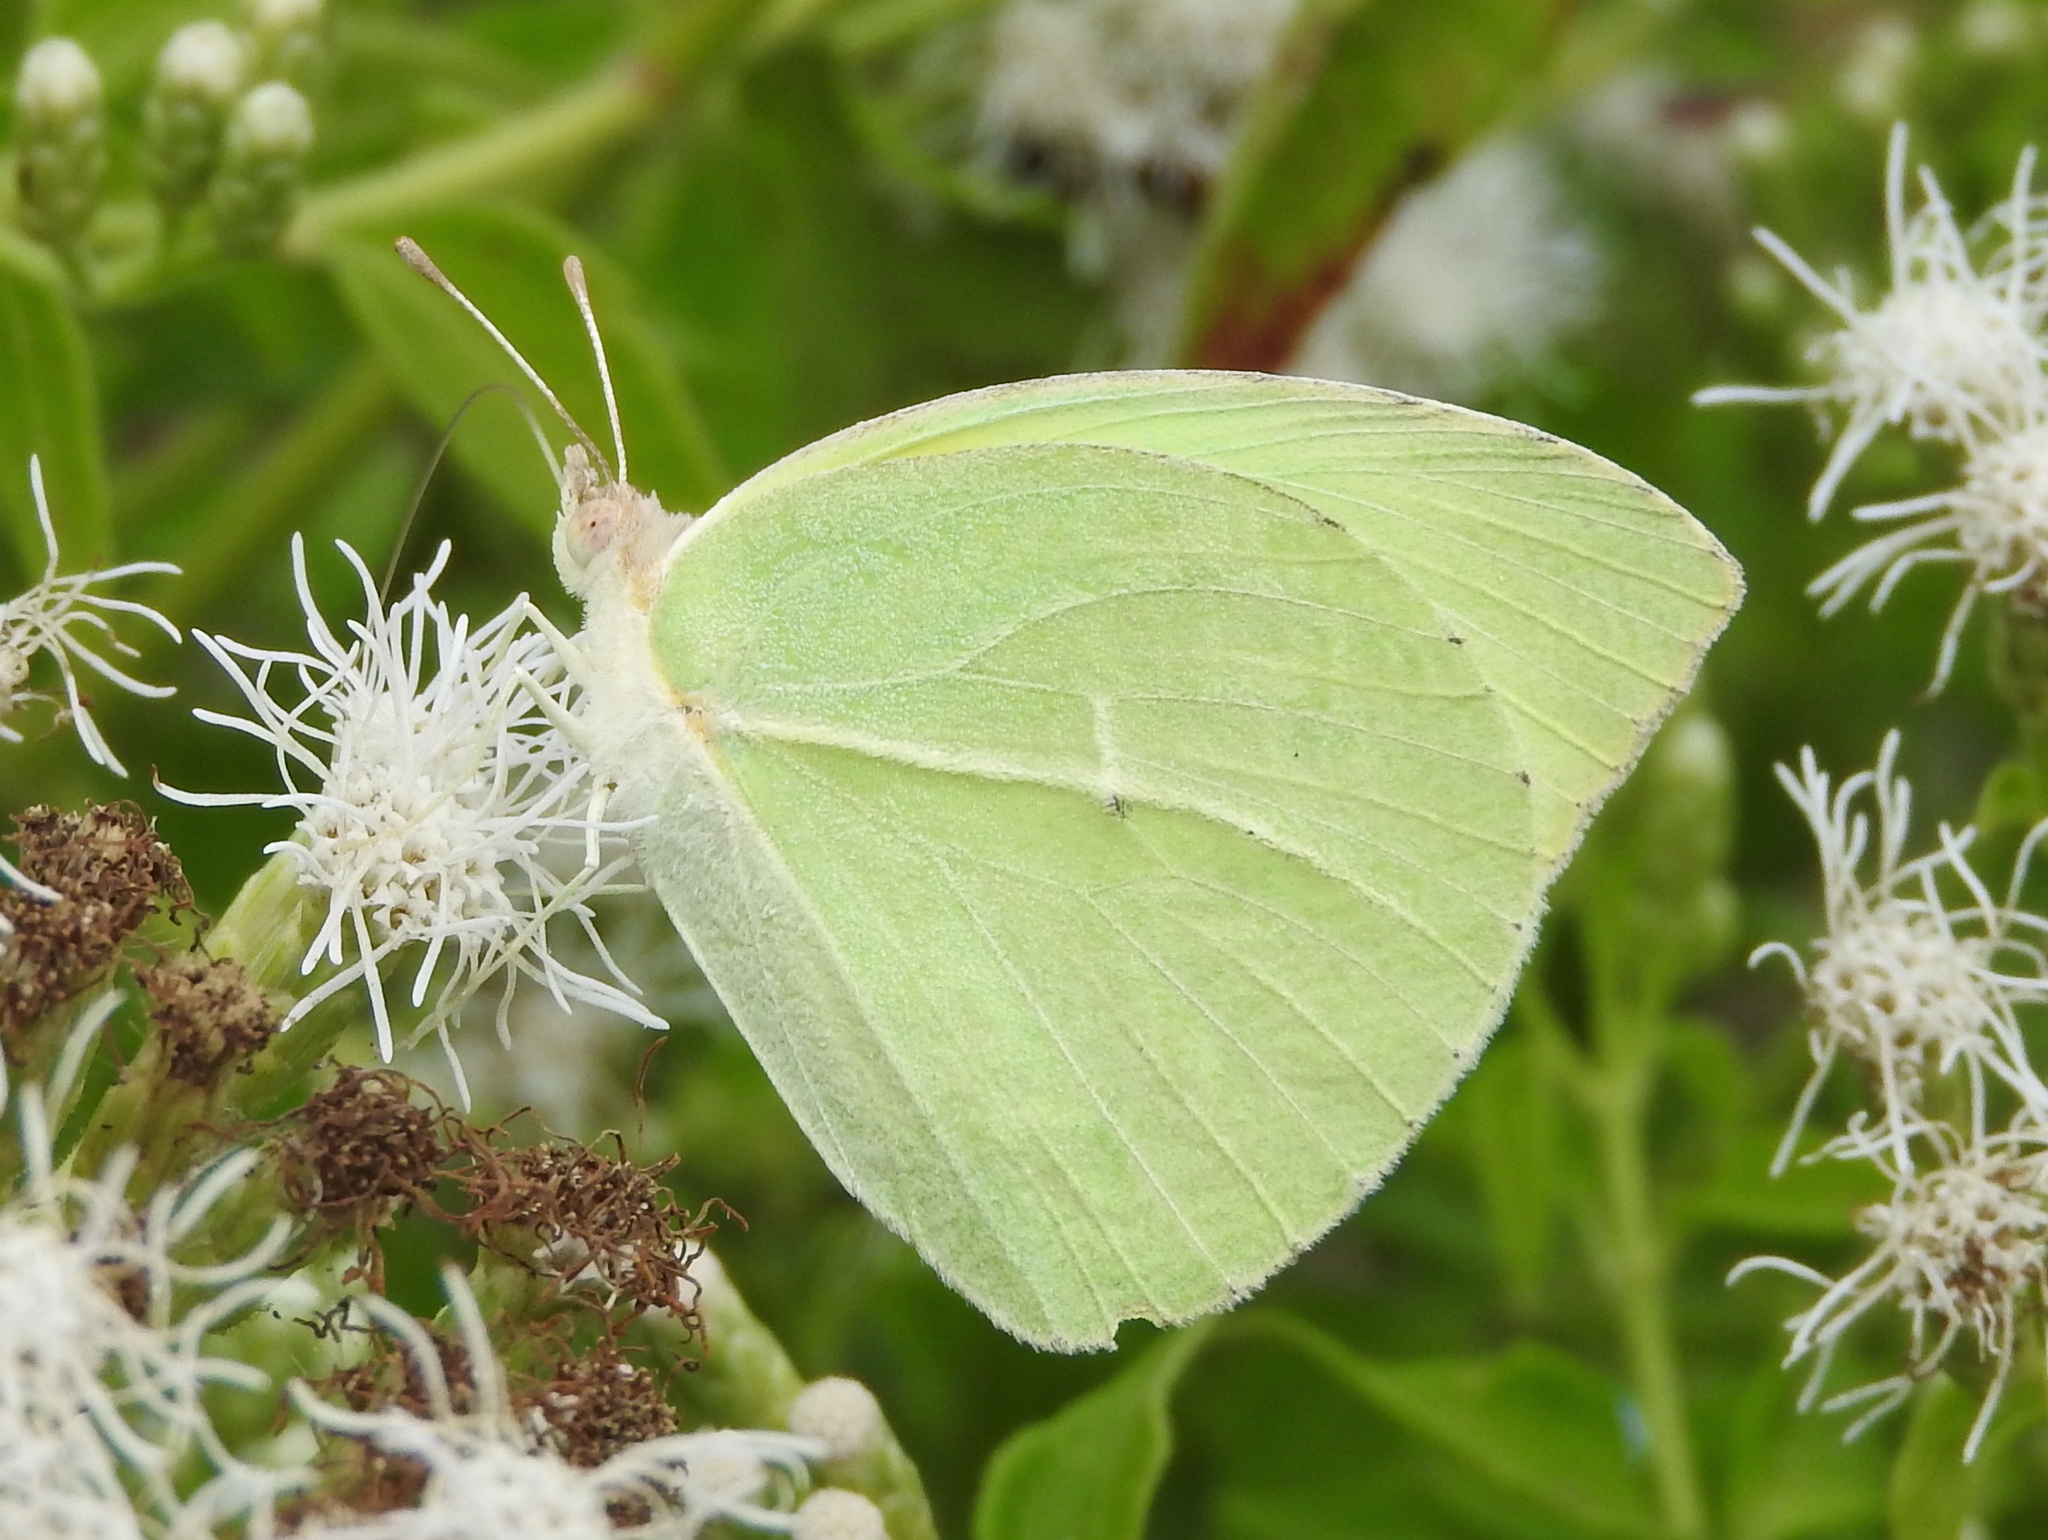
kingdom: Animalia
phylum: Arthropoda
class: Insecta
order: Lepidoptera
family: Pieridae
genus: Kricogonia
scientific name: Kricogonia lyside
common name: Guayacan sulphur,
